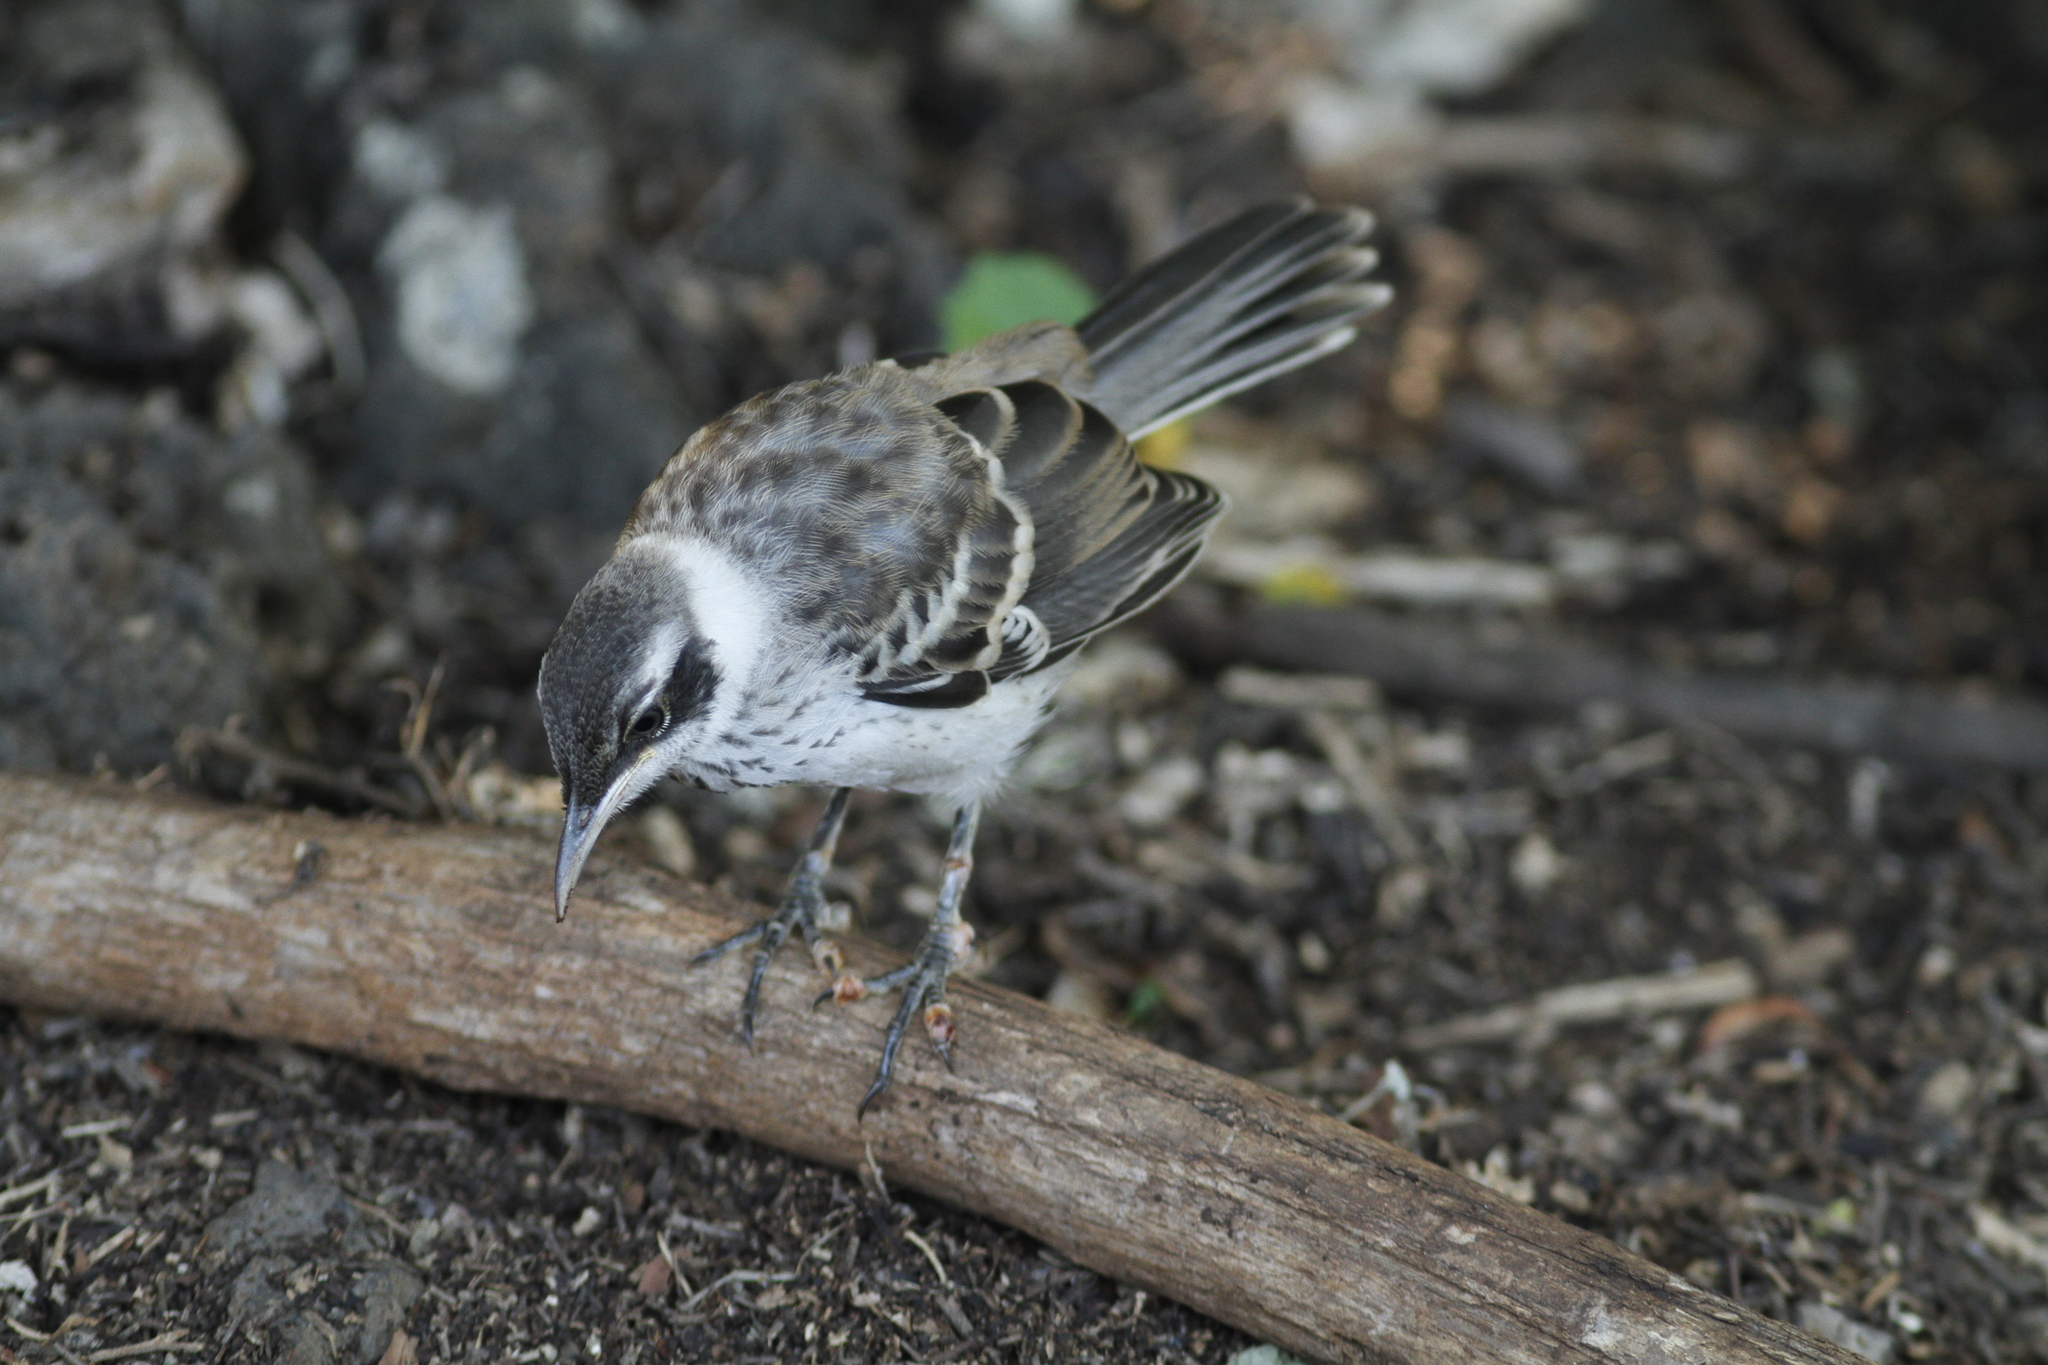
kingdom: Animalia
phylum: Chordata
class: Aves
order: Passeriformes
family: Mimidae
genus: Mimus
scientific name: Mimus parvulus
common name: Galapagos mockingbird
